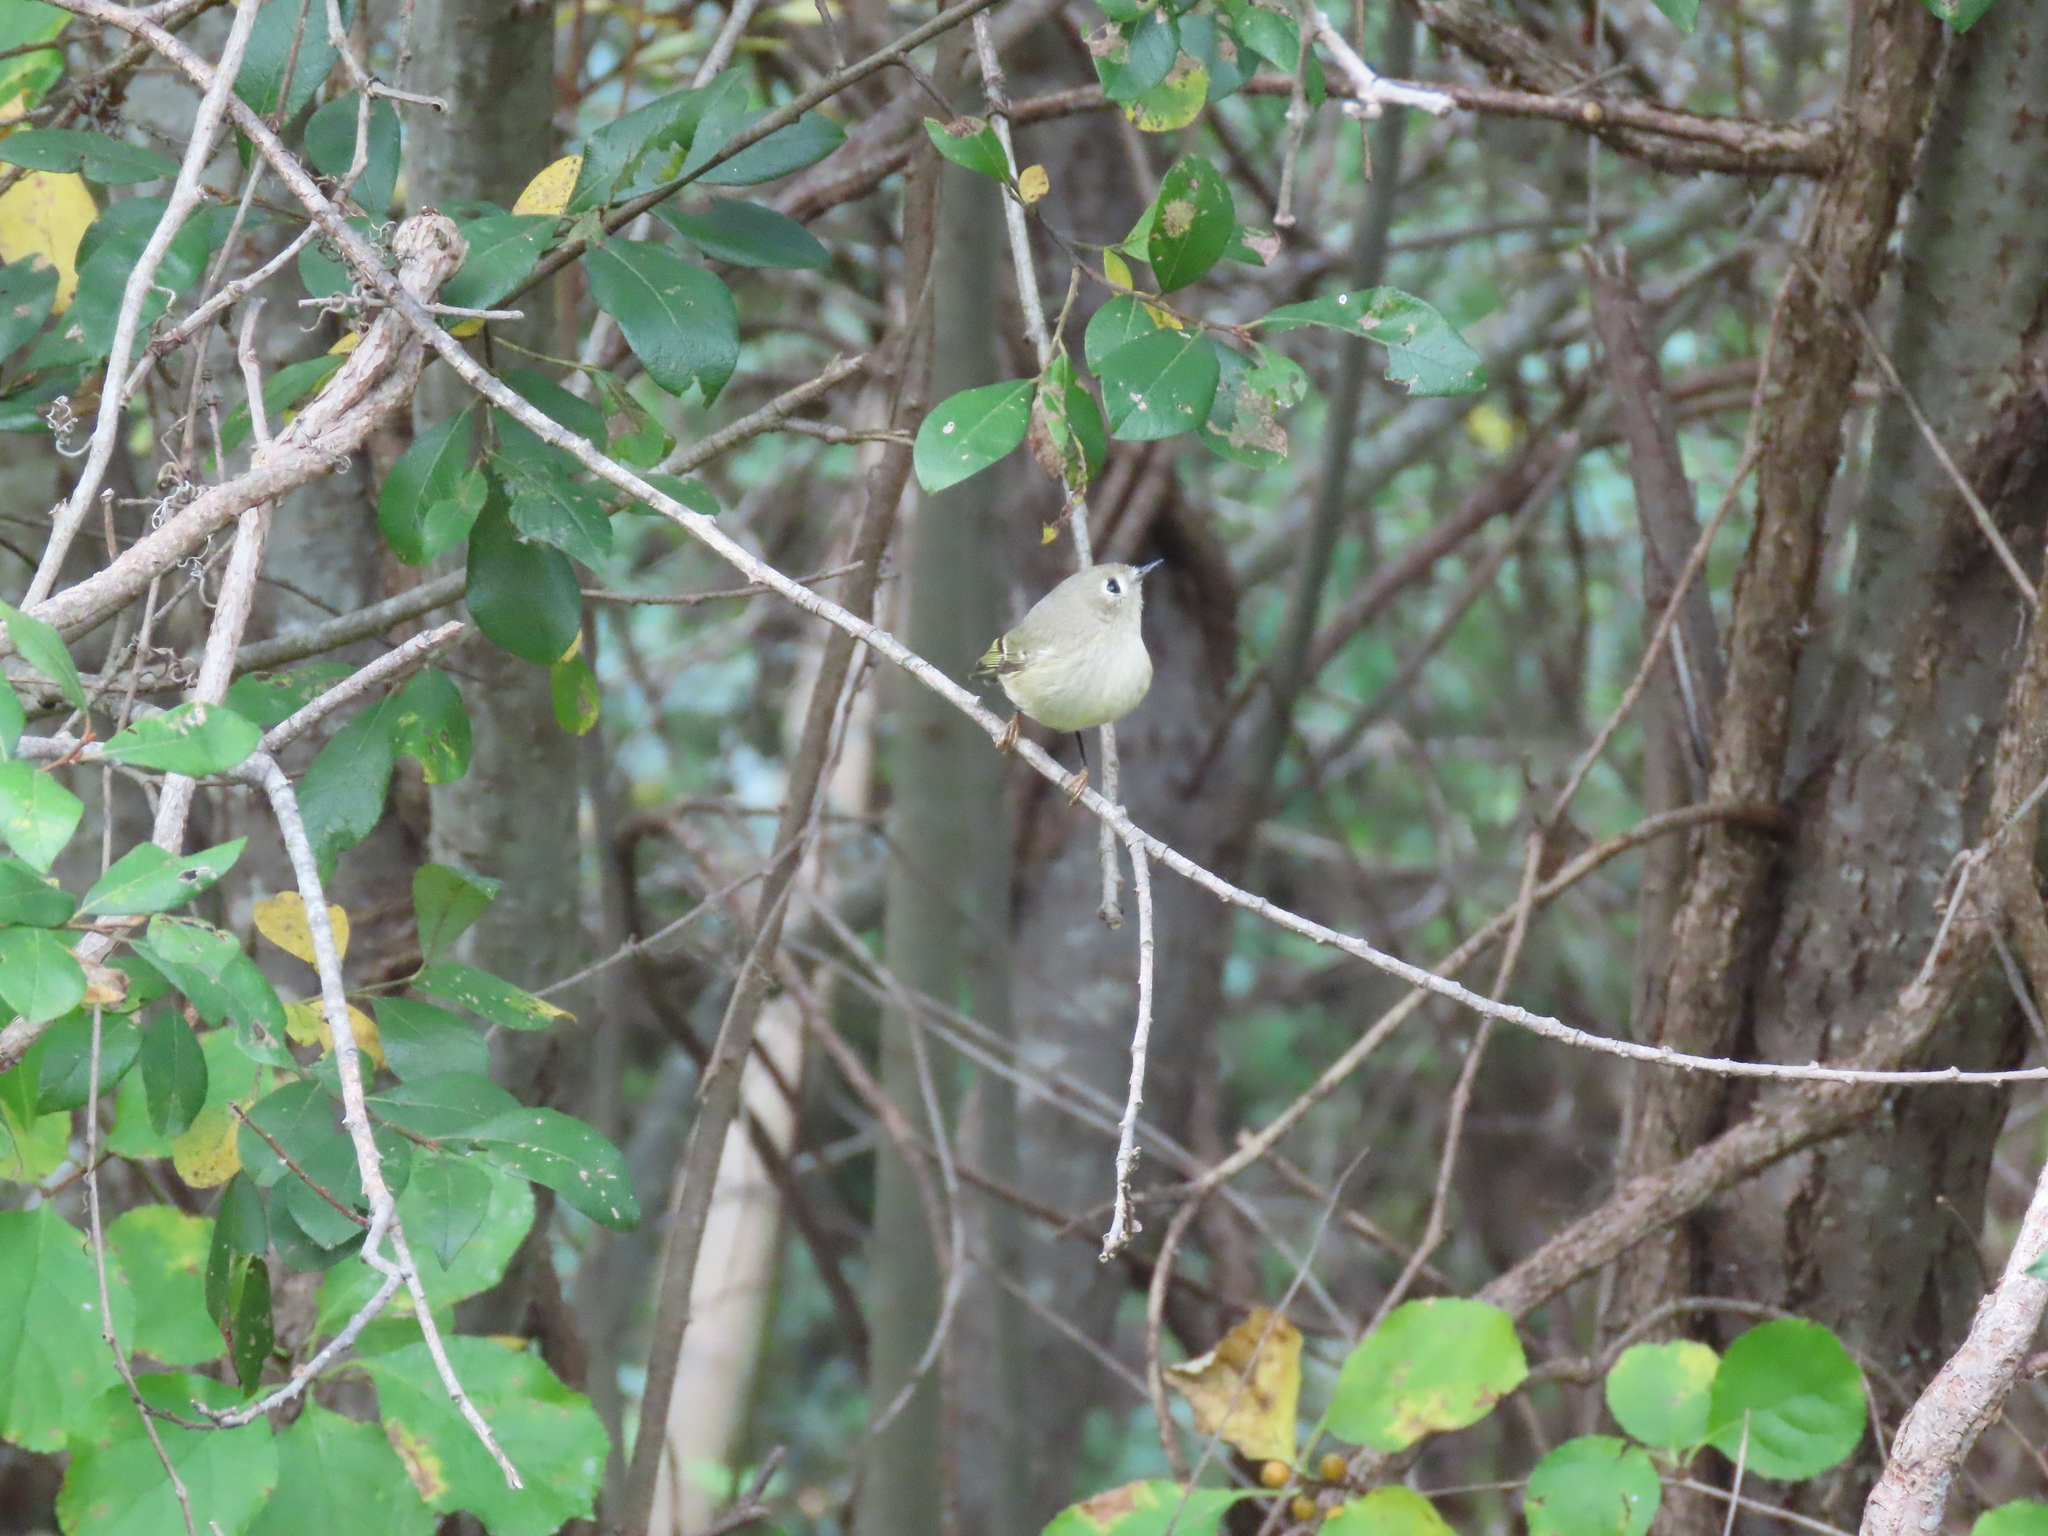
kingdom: Animalia
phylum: Chordata
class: Aves
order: Passeriformes
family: Regulidae
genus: Regulus
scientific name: Regulus calendula
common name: Ruby-crowned kinglet
